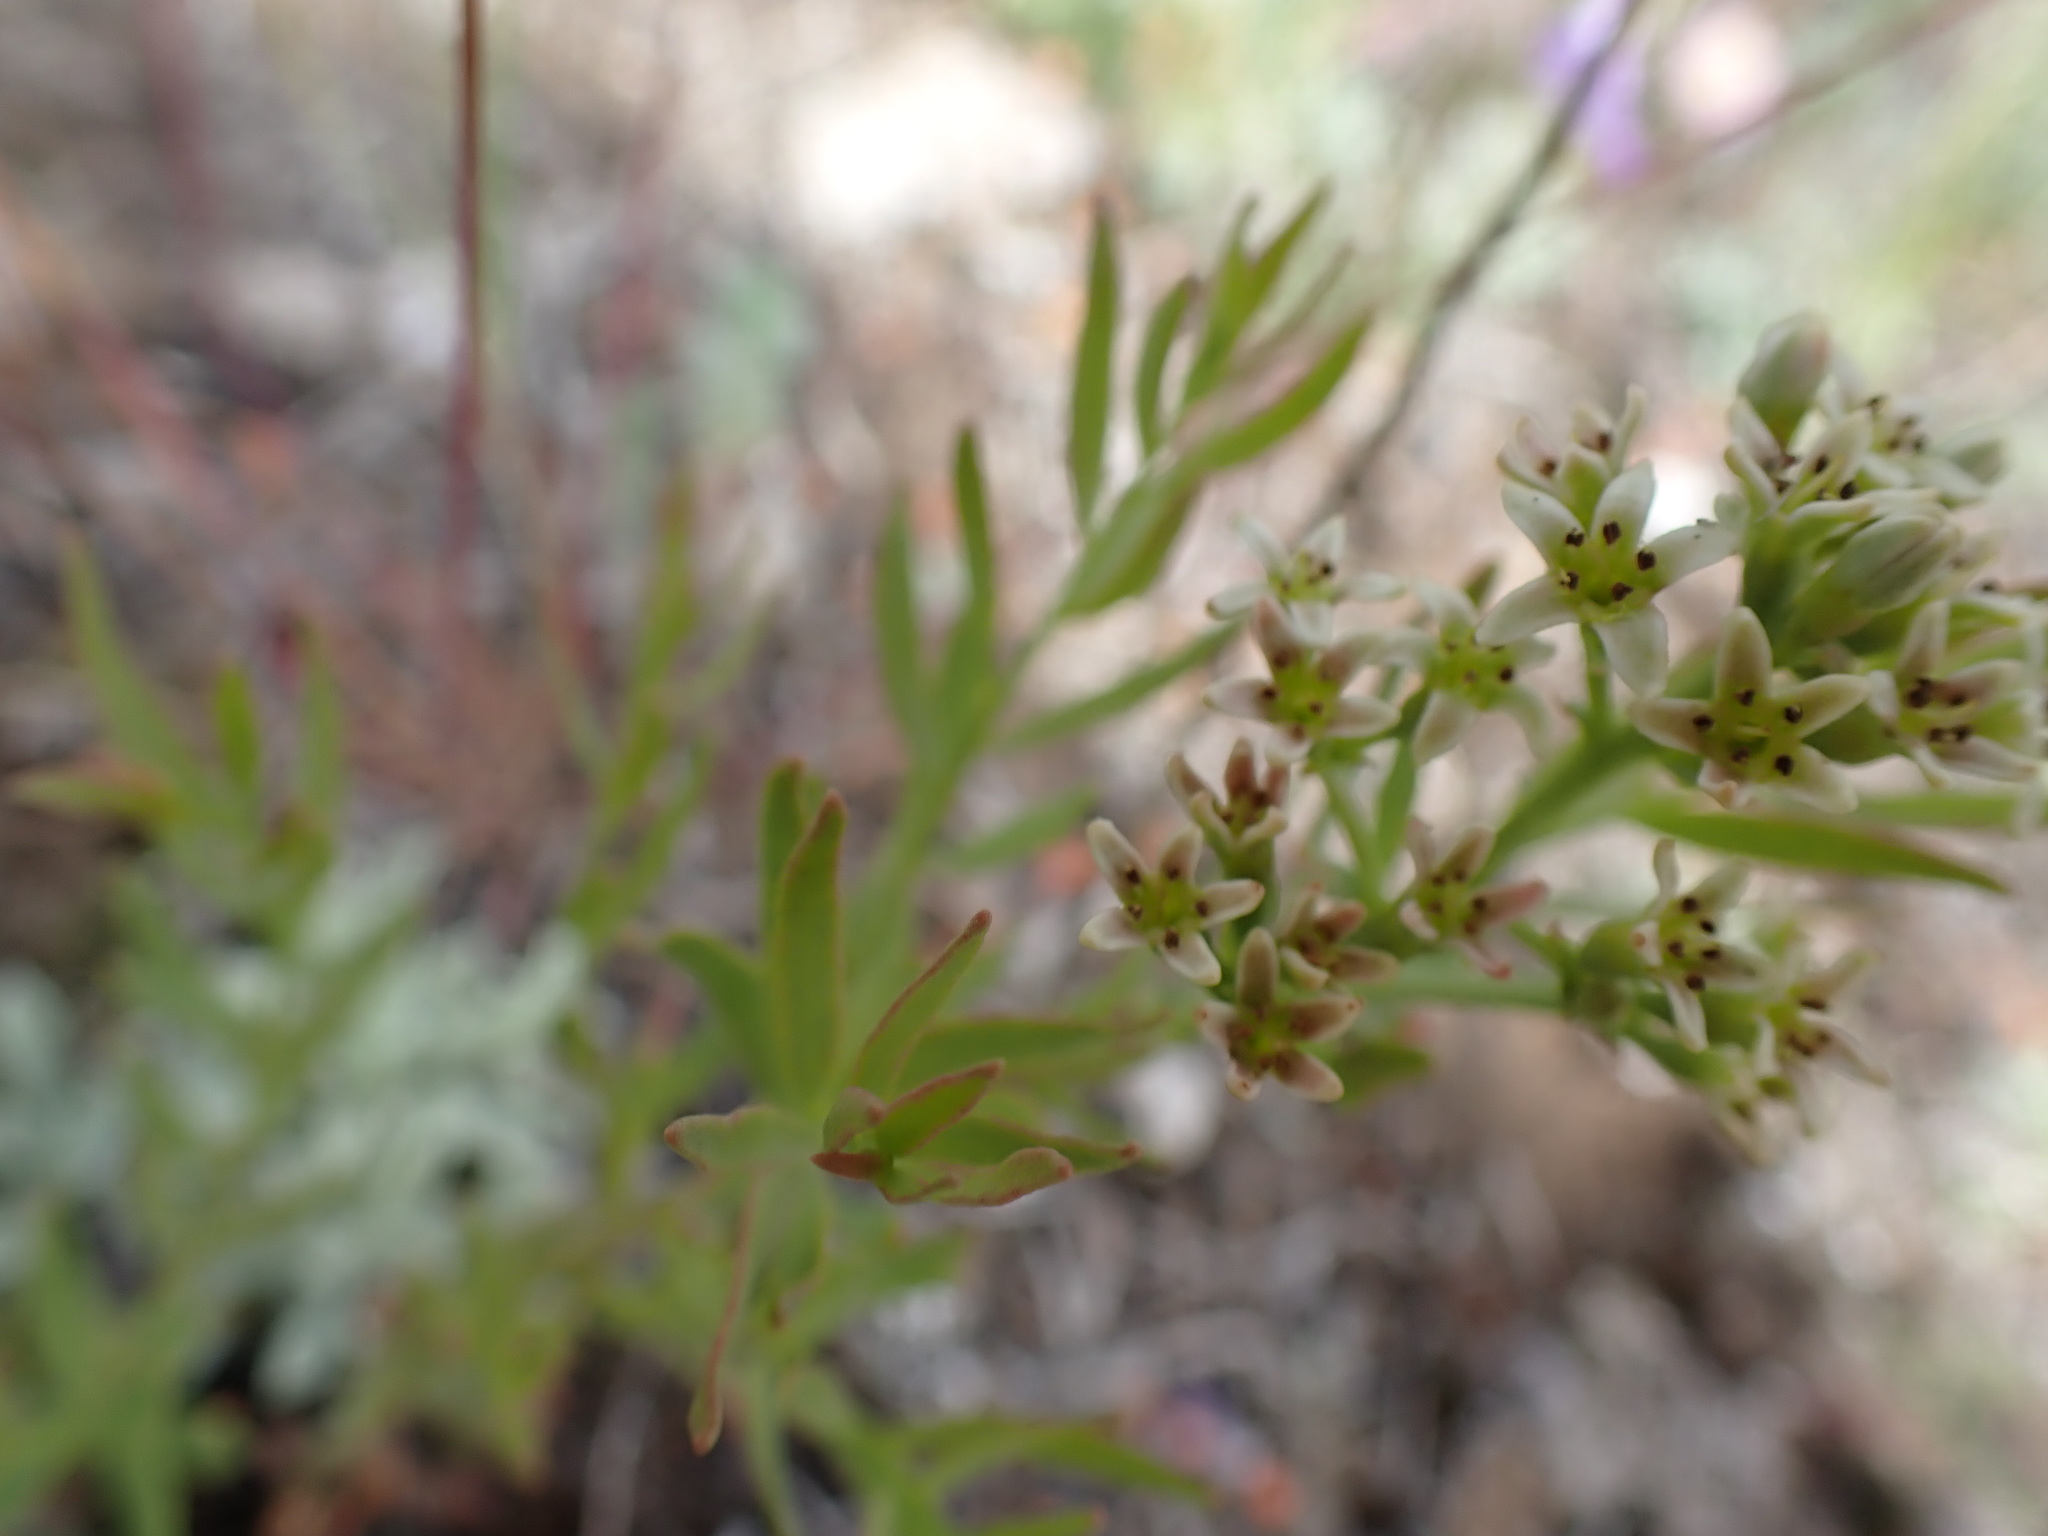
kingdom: Plantae
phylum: Tracheophyta
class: Magnoliopsida
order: Santalales
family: Comandraceae
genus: Comandra
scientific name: Comandra umbellata
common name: Bastard toadflax
